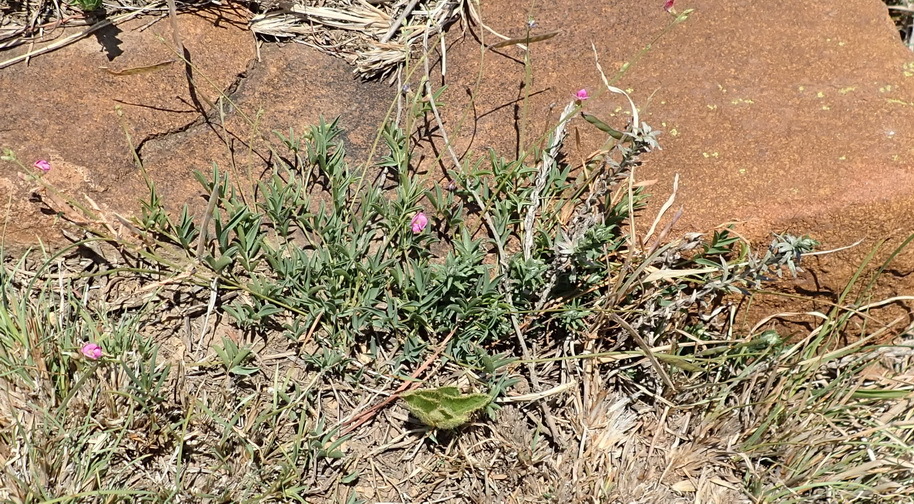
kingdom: Plantae
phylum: Tracheophyta
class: Magnoliopsida
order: Fabales
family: Fabaceae
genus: Tephrosia
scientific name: Tephrosia capensis
